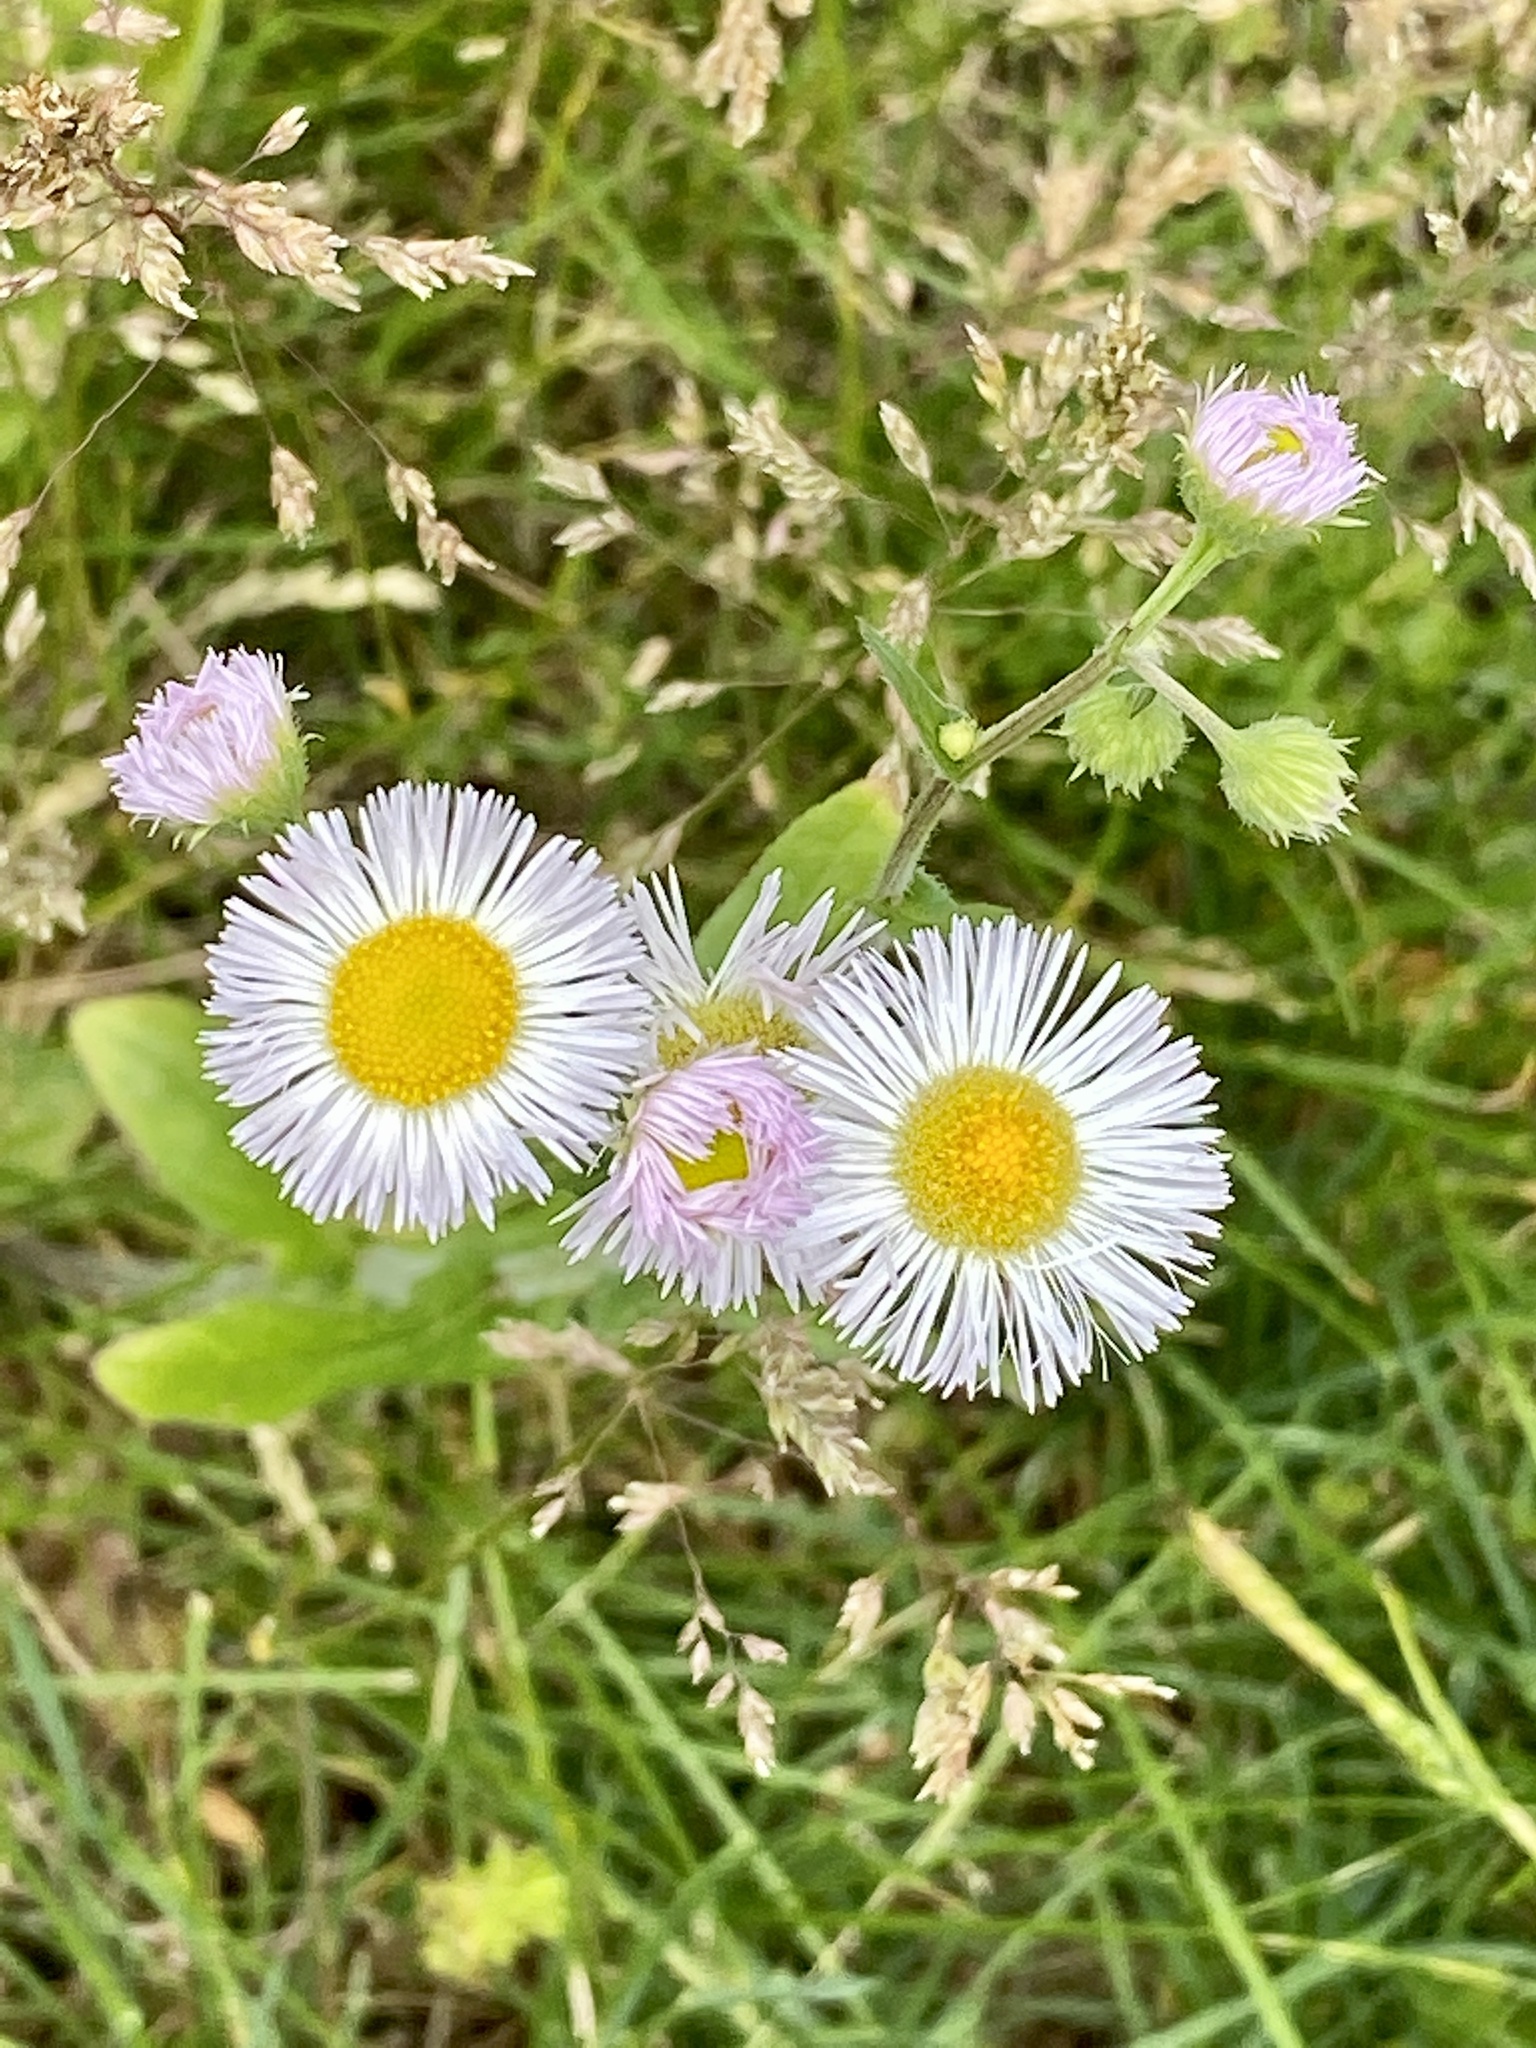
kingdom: Plantae
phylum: Tracheophyta
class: Magnoliopsida
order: Asterales
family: Asteraceae
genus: Erigeron
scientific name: Erigeron philadelphicus
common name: Robin's-plantain
